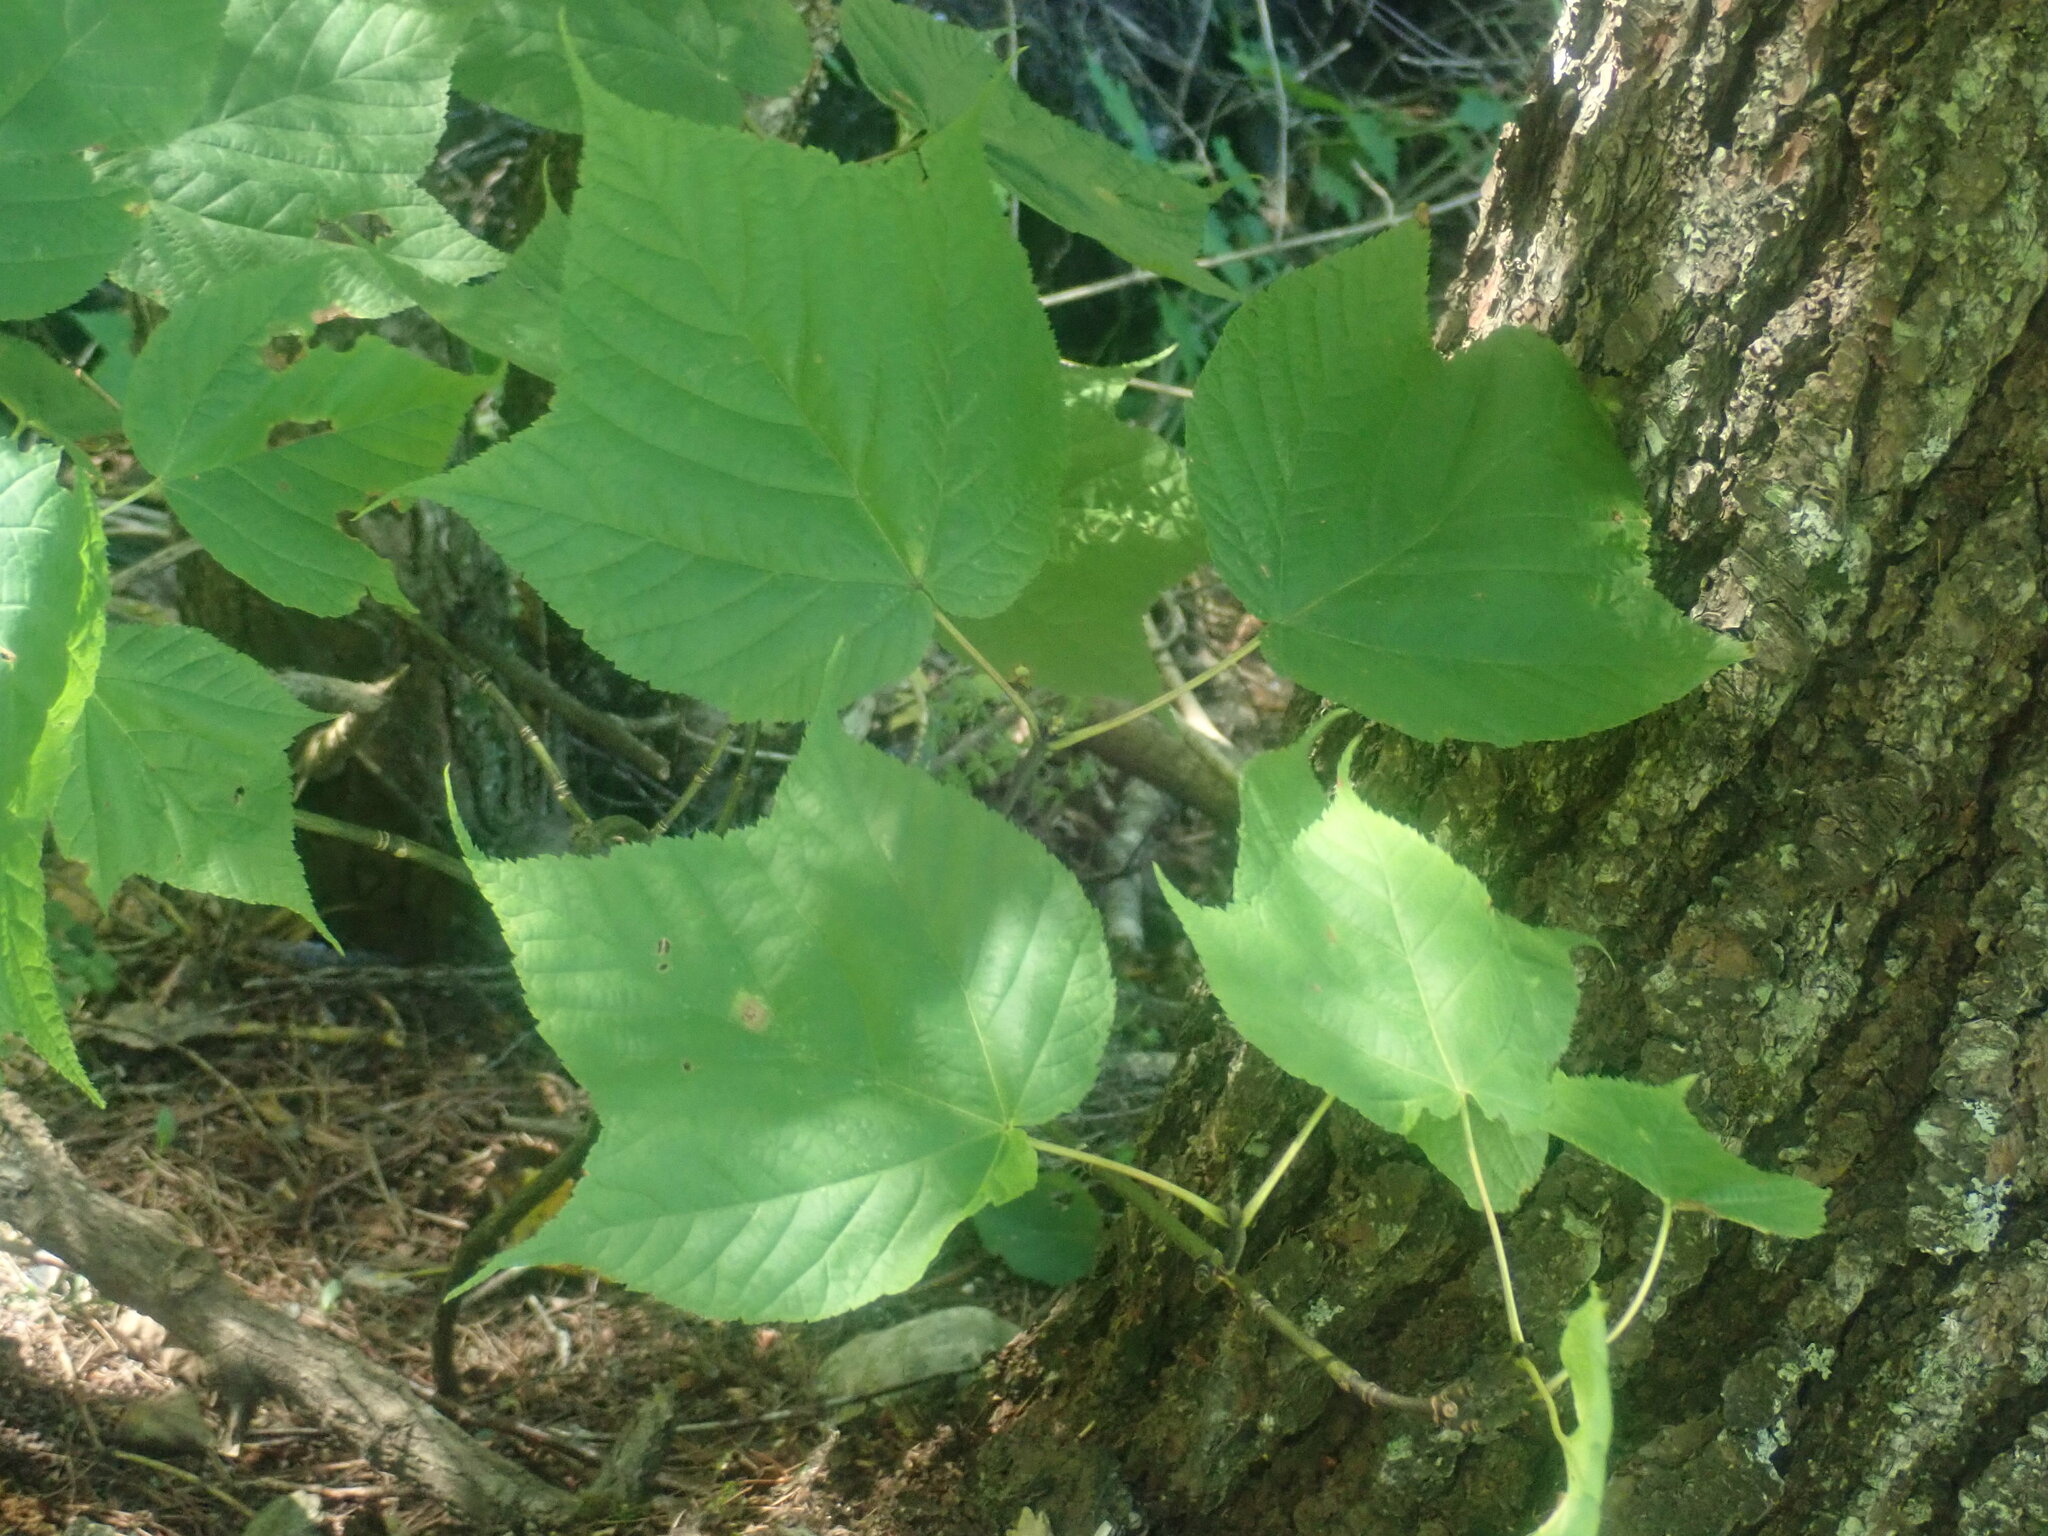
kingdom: Plantae
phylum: Tracheophyta
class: Magnoliopsida
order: Sapindales
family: Sapindaceae
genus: Acer
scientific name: Acer pensylvanicum
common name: Moosewood
